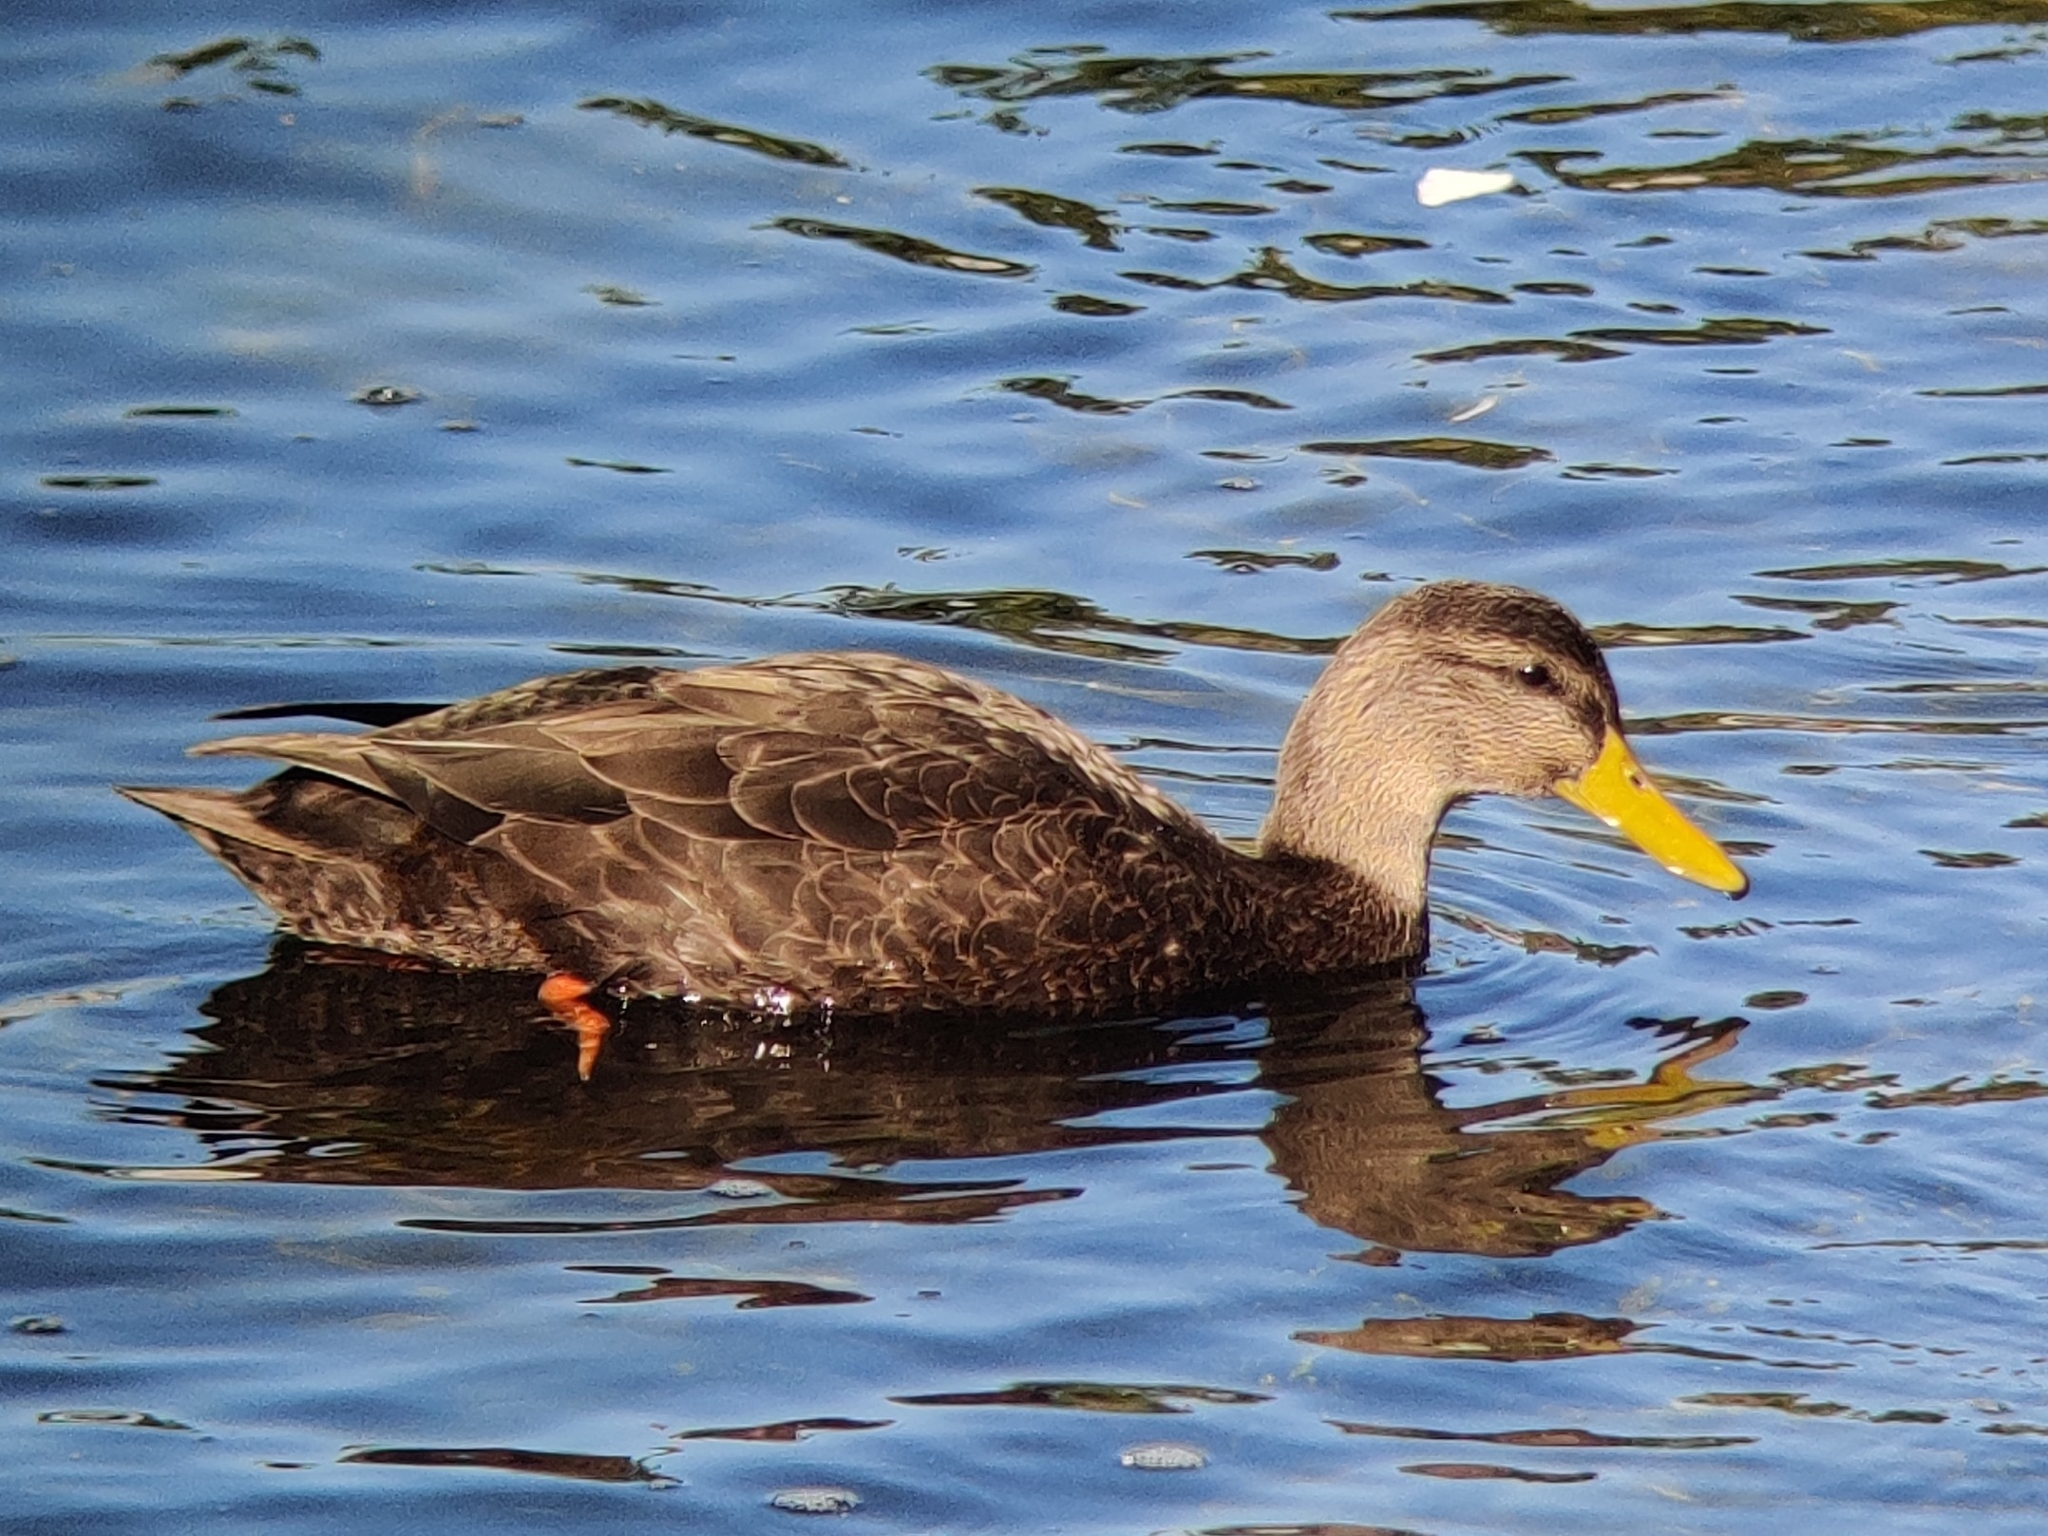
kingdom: Animalia
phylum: Chordata
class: Aves
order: Anseriformes
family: Anatidae
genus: Anas
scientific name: Anas rubripes
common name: American black duck
